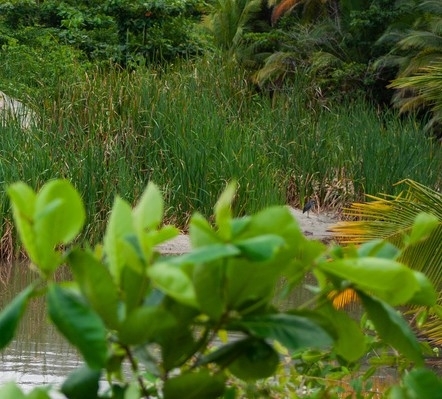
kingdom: Animalia
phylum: Chordata
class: Aves
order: Pelecaniformes
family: Ardeidae
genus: Nyctanassa
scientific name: Nyctanassa violacea
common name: Yellow-crowned night heron
